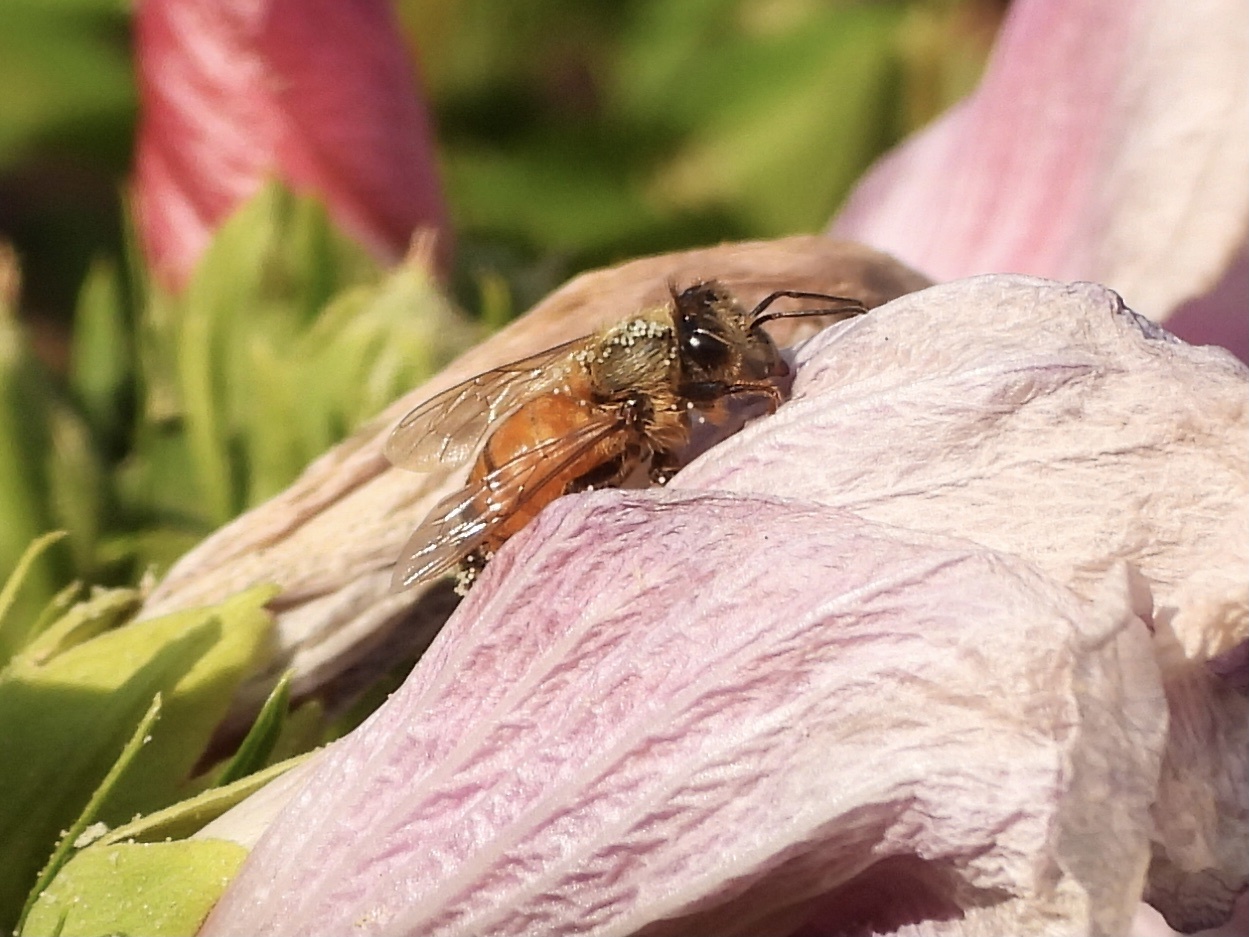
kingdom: Animalia
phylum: Arthropoda
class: Insecta
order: Hymenoptera
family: Apidae
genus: Apis
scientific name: Apis mellifera
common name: Honey bee
